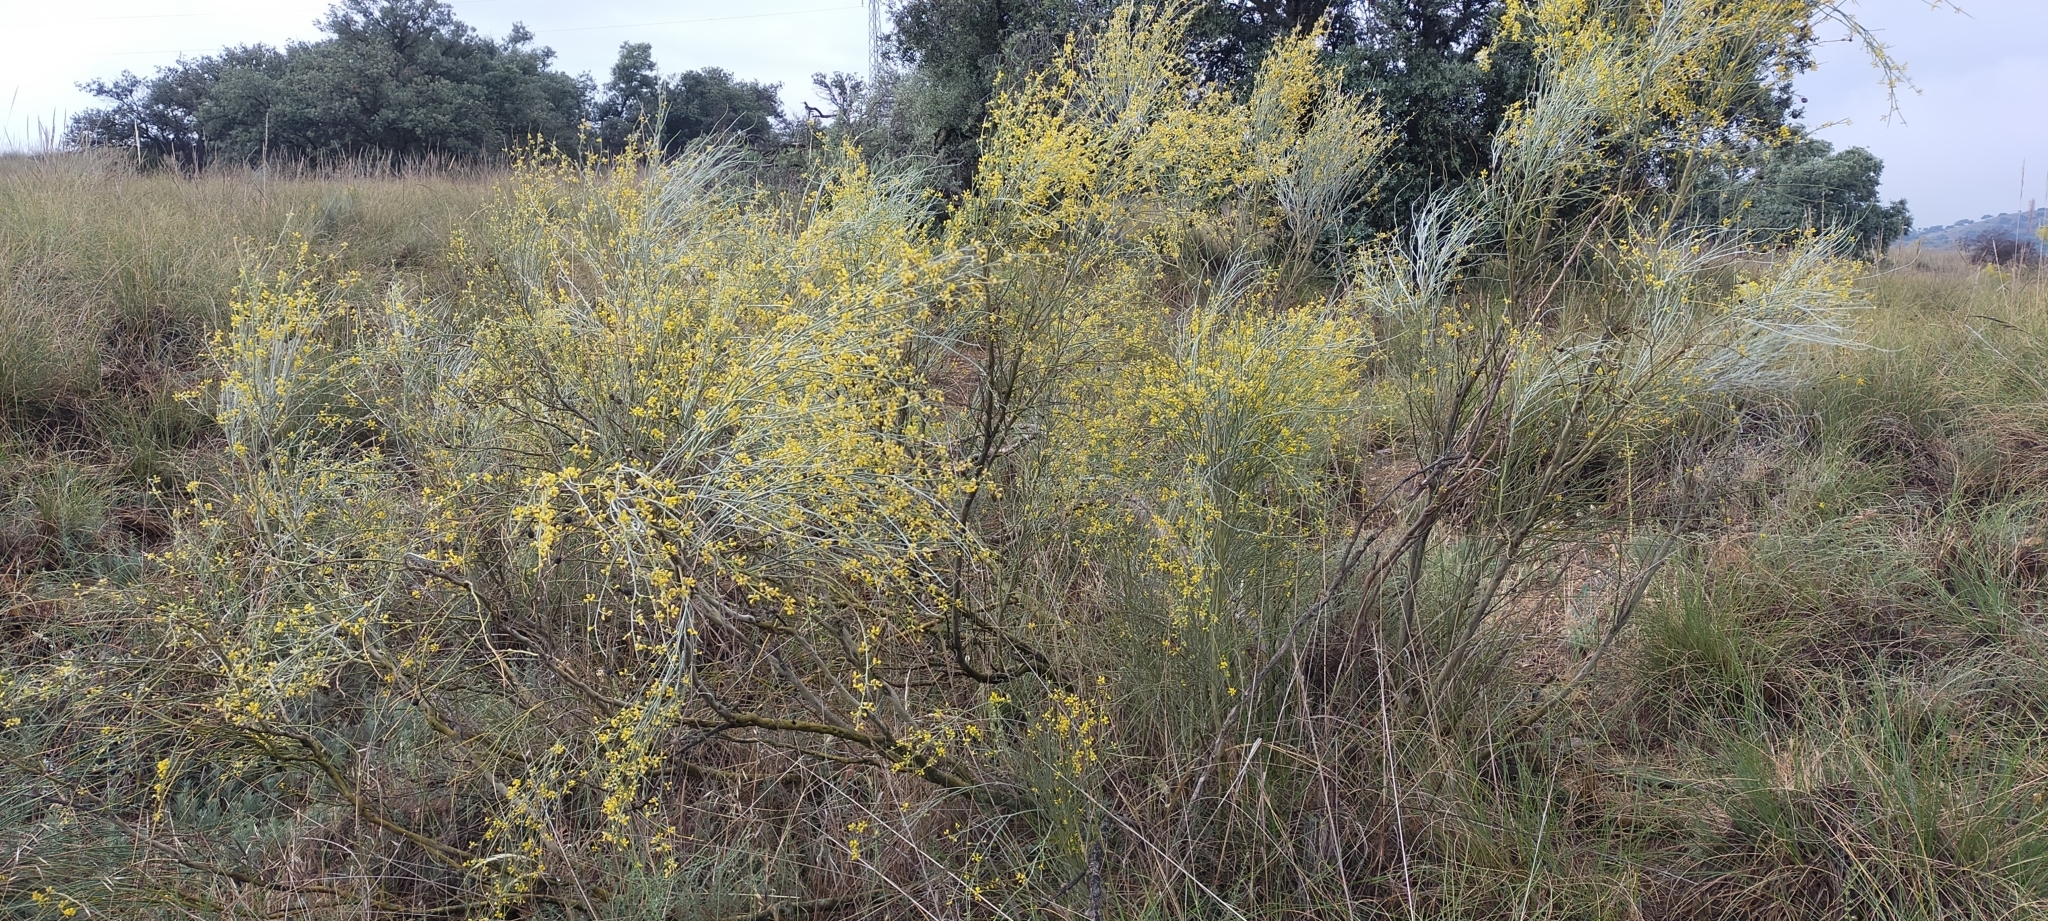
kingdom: Plantae
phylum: Tracheophyta
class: Magnoliopsida
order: Fabales
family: Fabaceae
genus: Retama
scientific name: Retama sphaerocarpa
